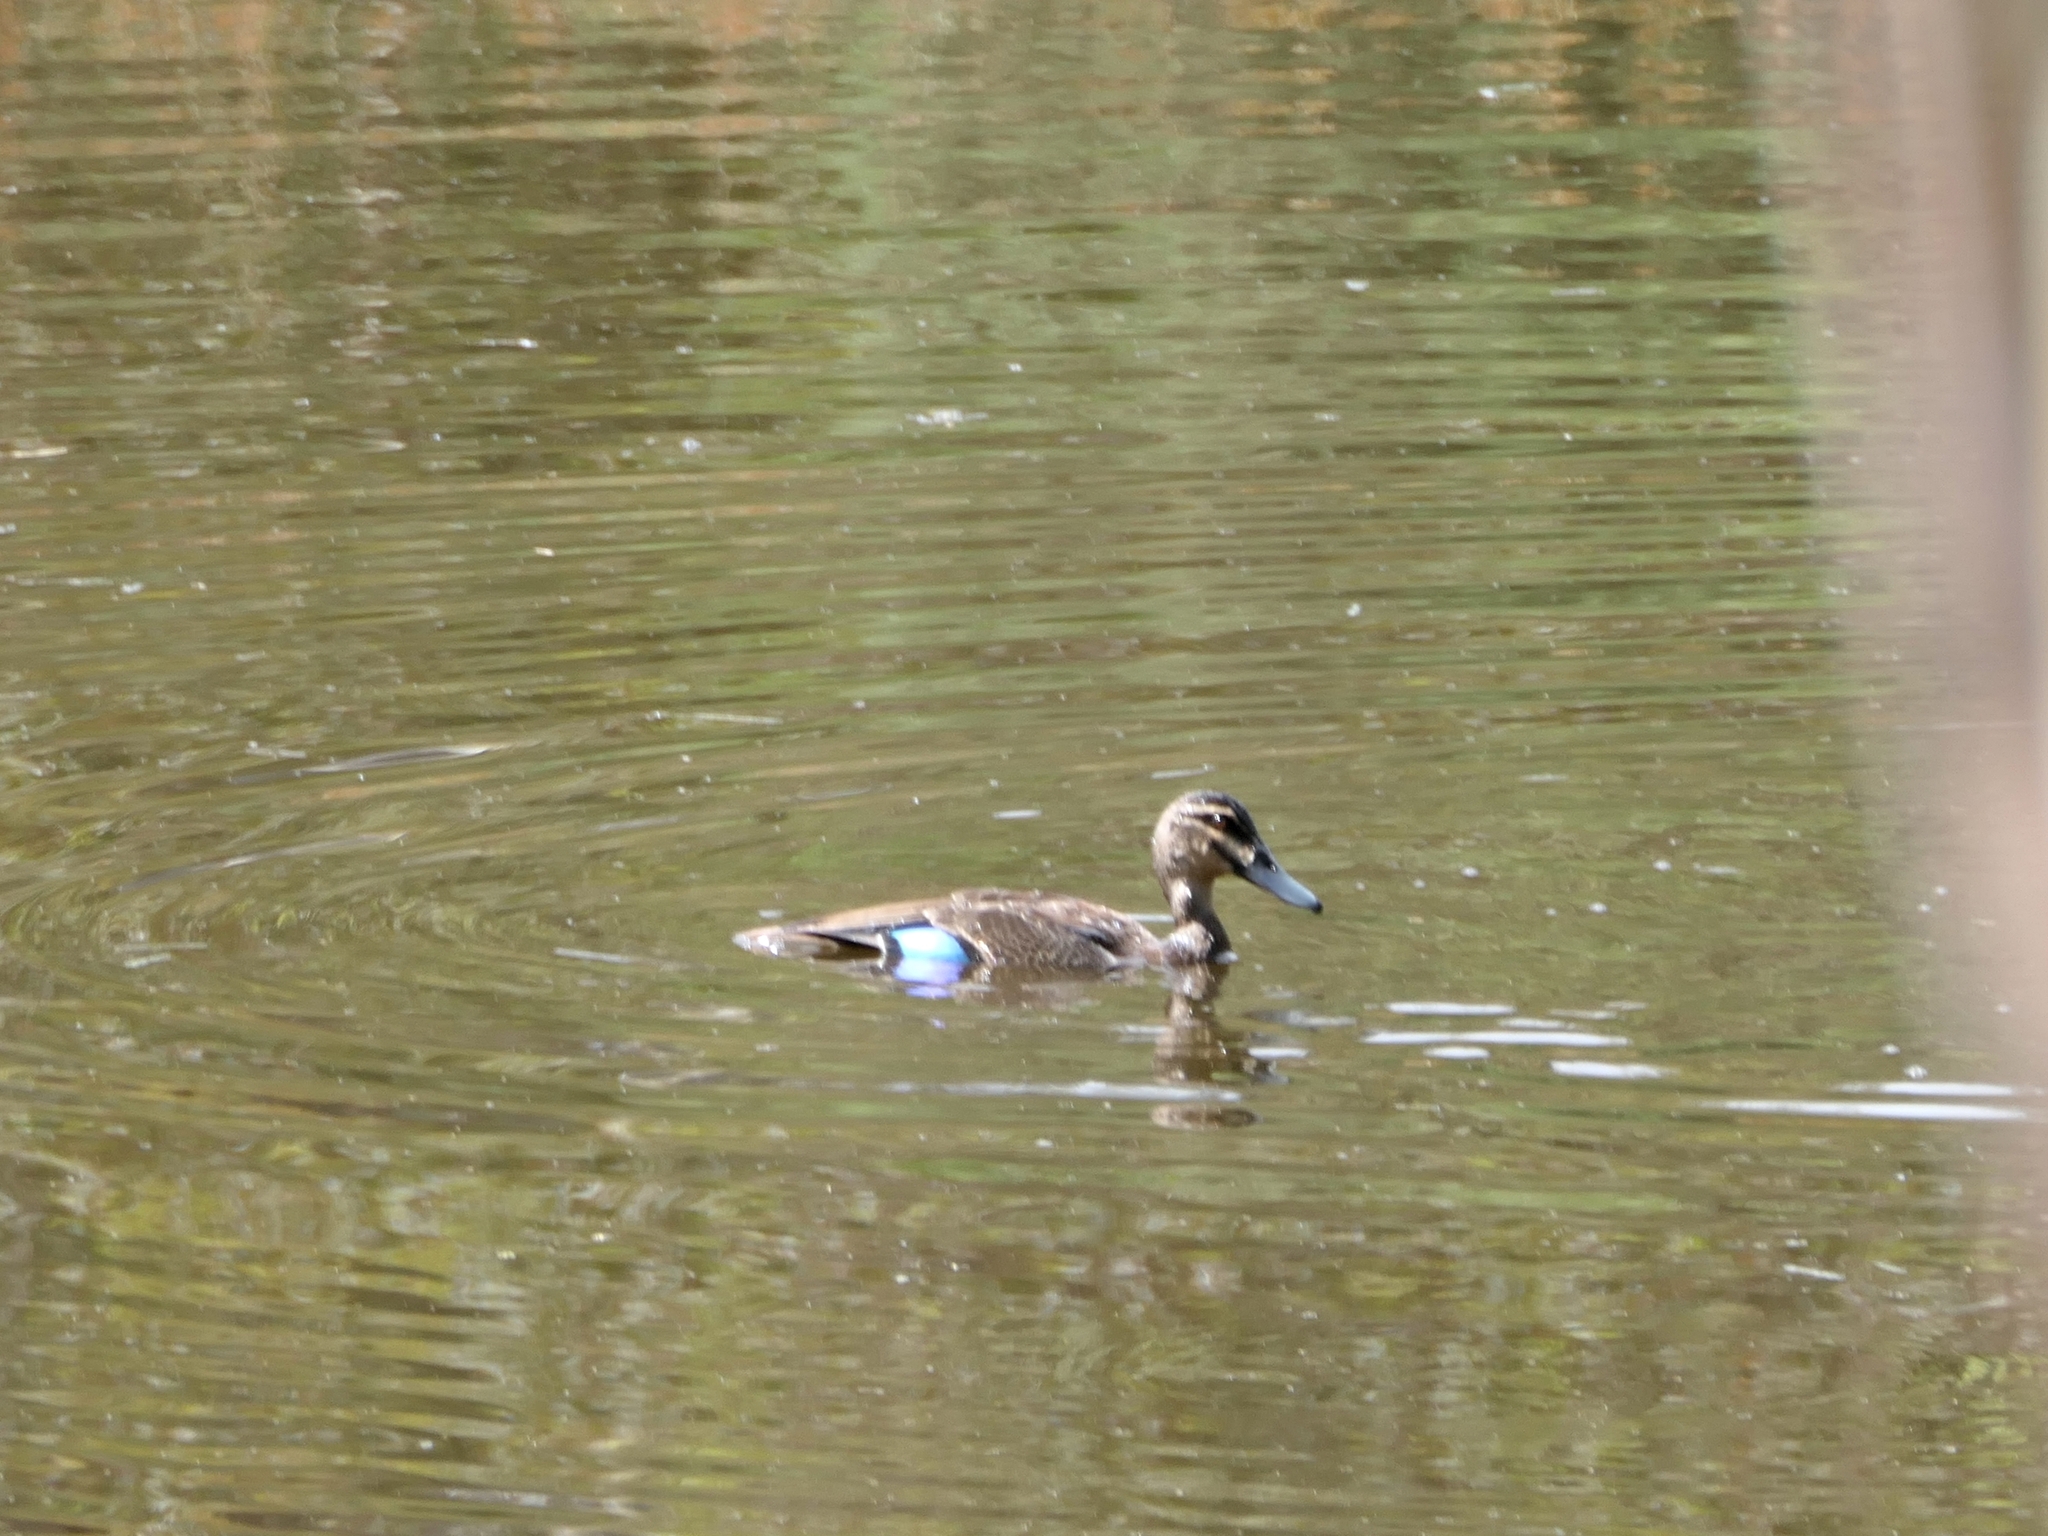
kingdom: Animalia
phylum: Chordata
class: Aves
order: Anseriformes
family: Anatidae
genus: Anas
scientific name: Anas superciliosa
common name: Pacific black duck
